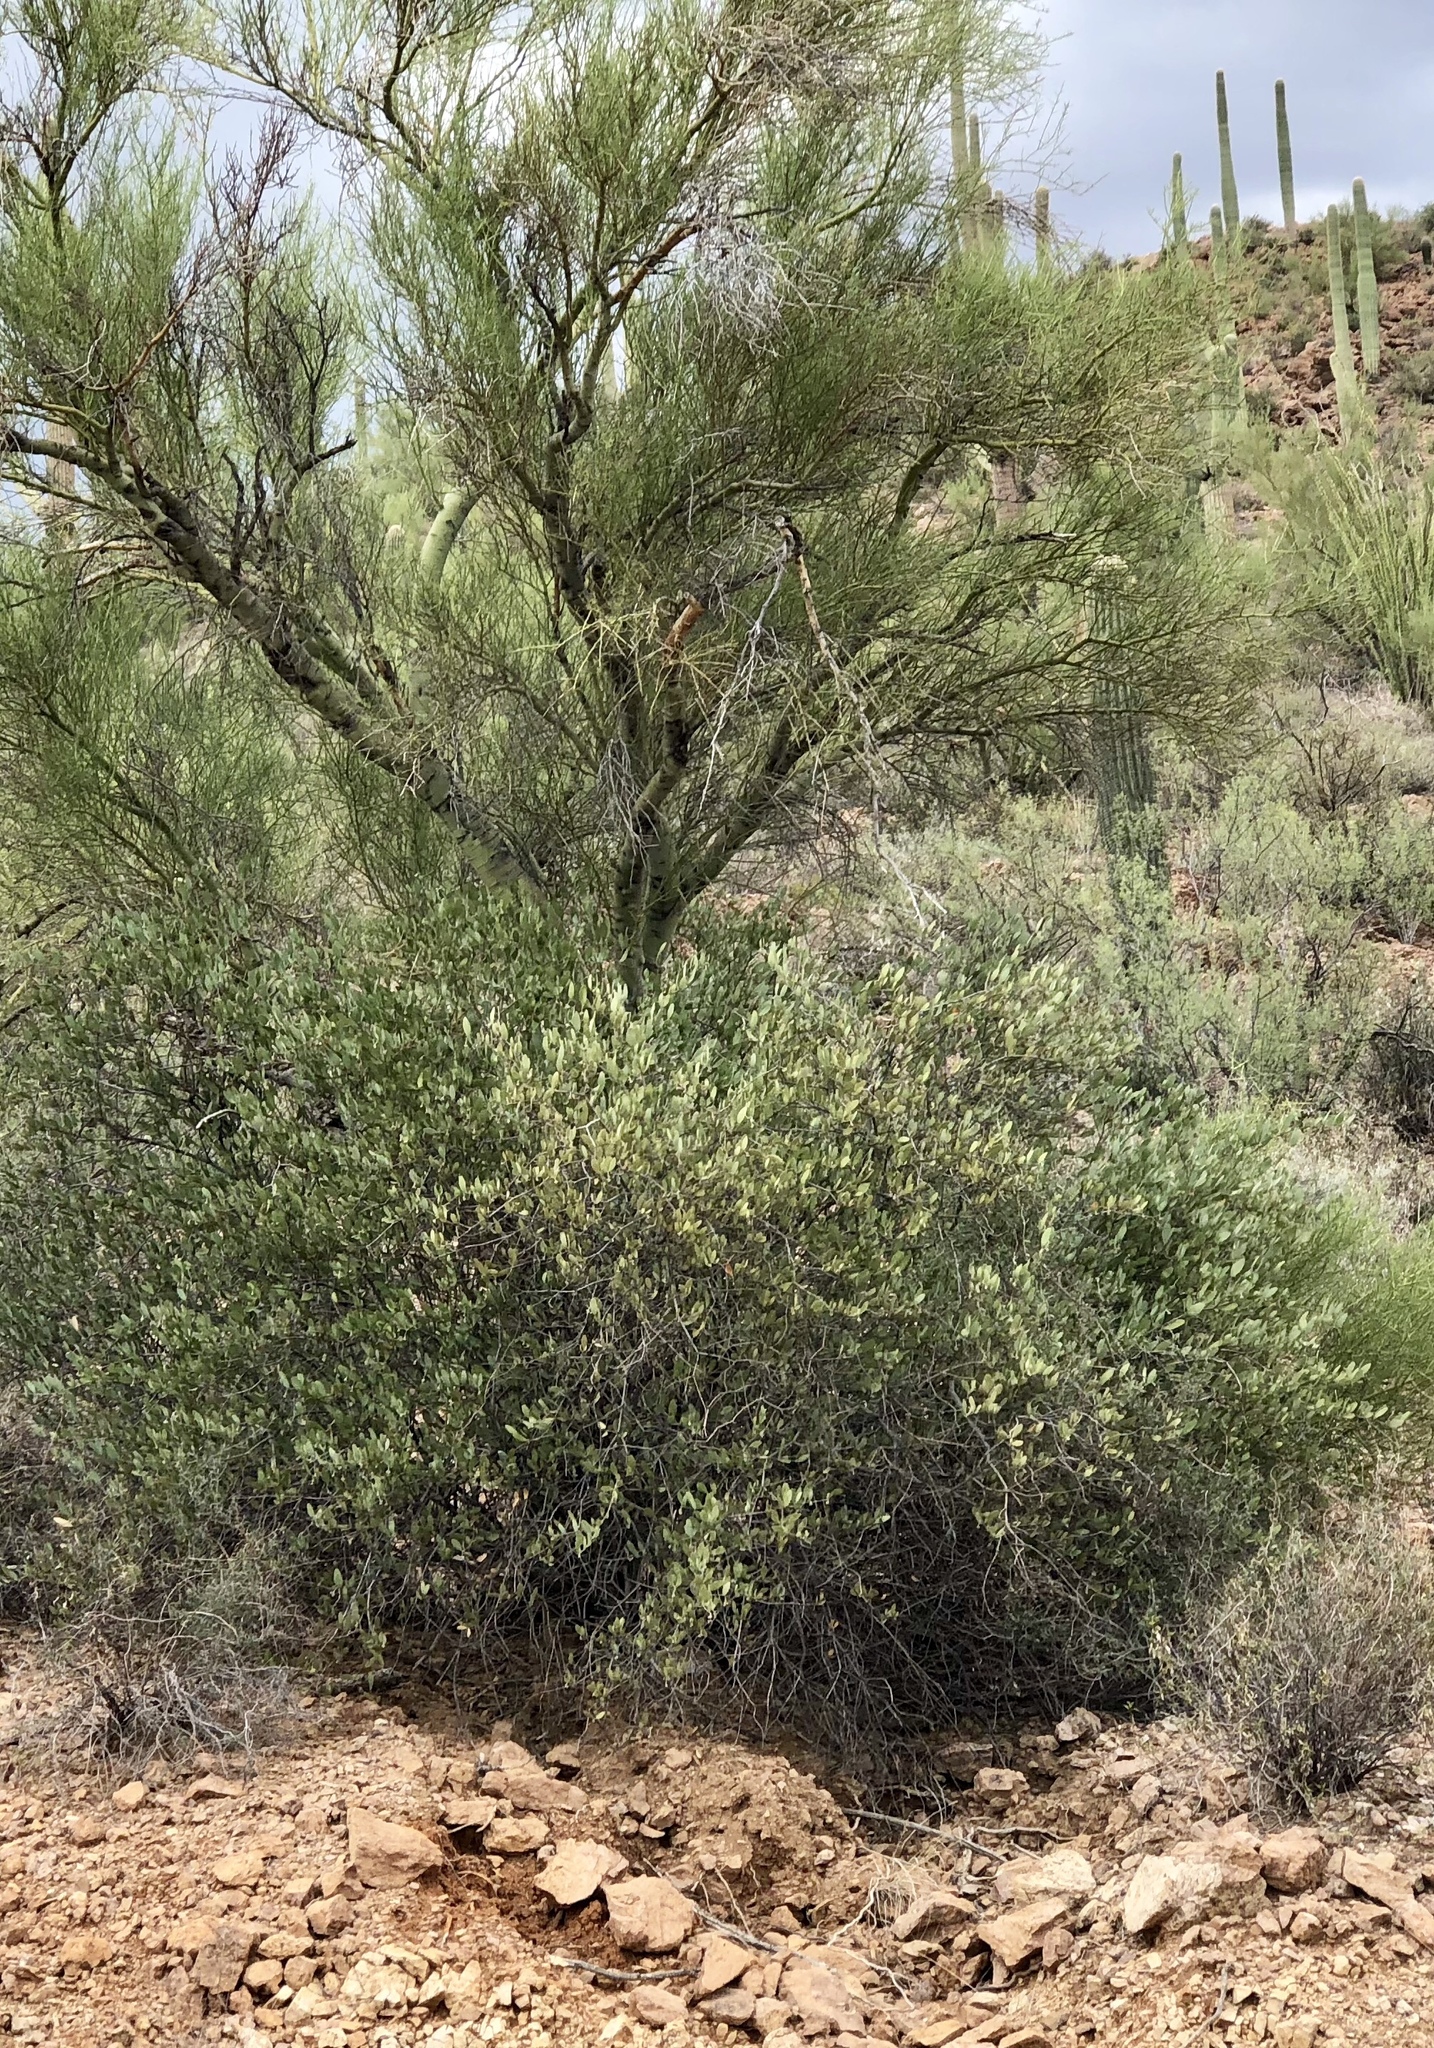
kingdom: Plantae
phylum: Tracheophyta
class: Magnoliopsida
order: Caryophyllales
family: Simmondsiaceae
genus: Simmondsia
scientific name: Simmondsia chinensis
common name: Jojoba
